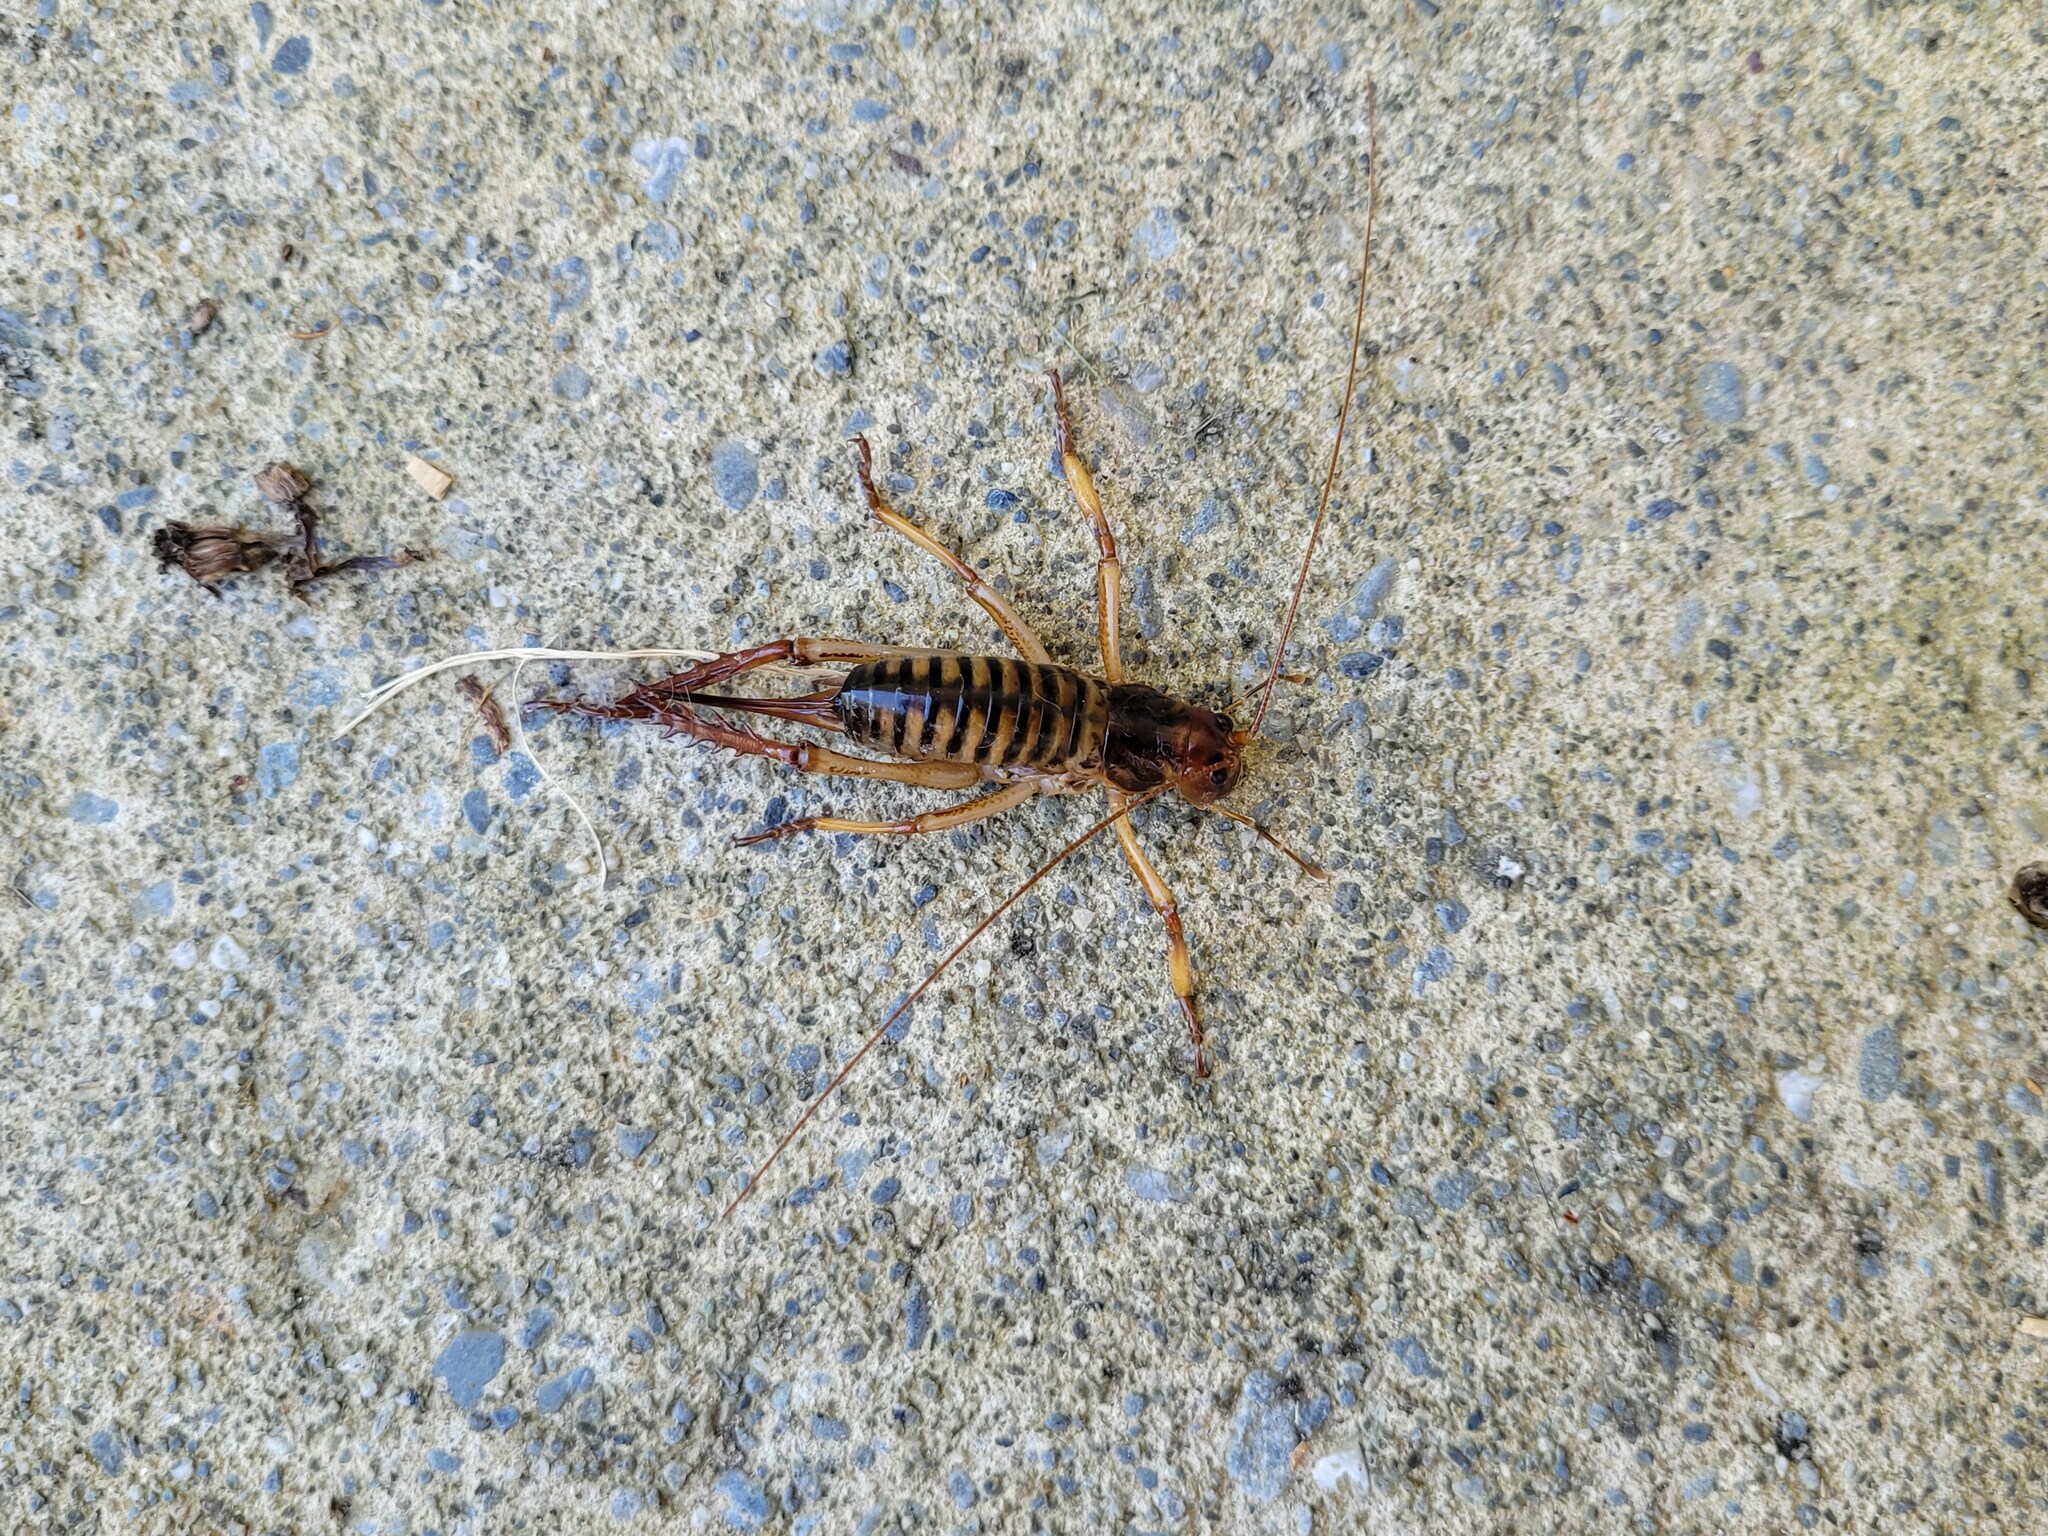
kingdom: Animalia
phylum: Arthropoda
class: Insecta
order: Orthoptera
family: Anostostomatidae
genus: Hemideina
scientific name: Hemideina crassidens
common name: Wellington tree weta
